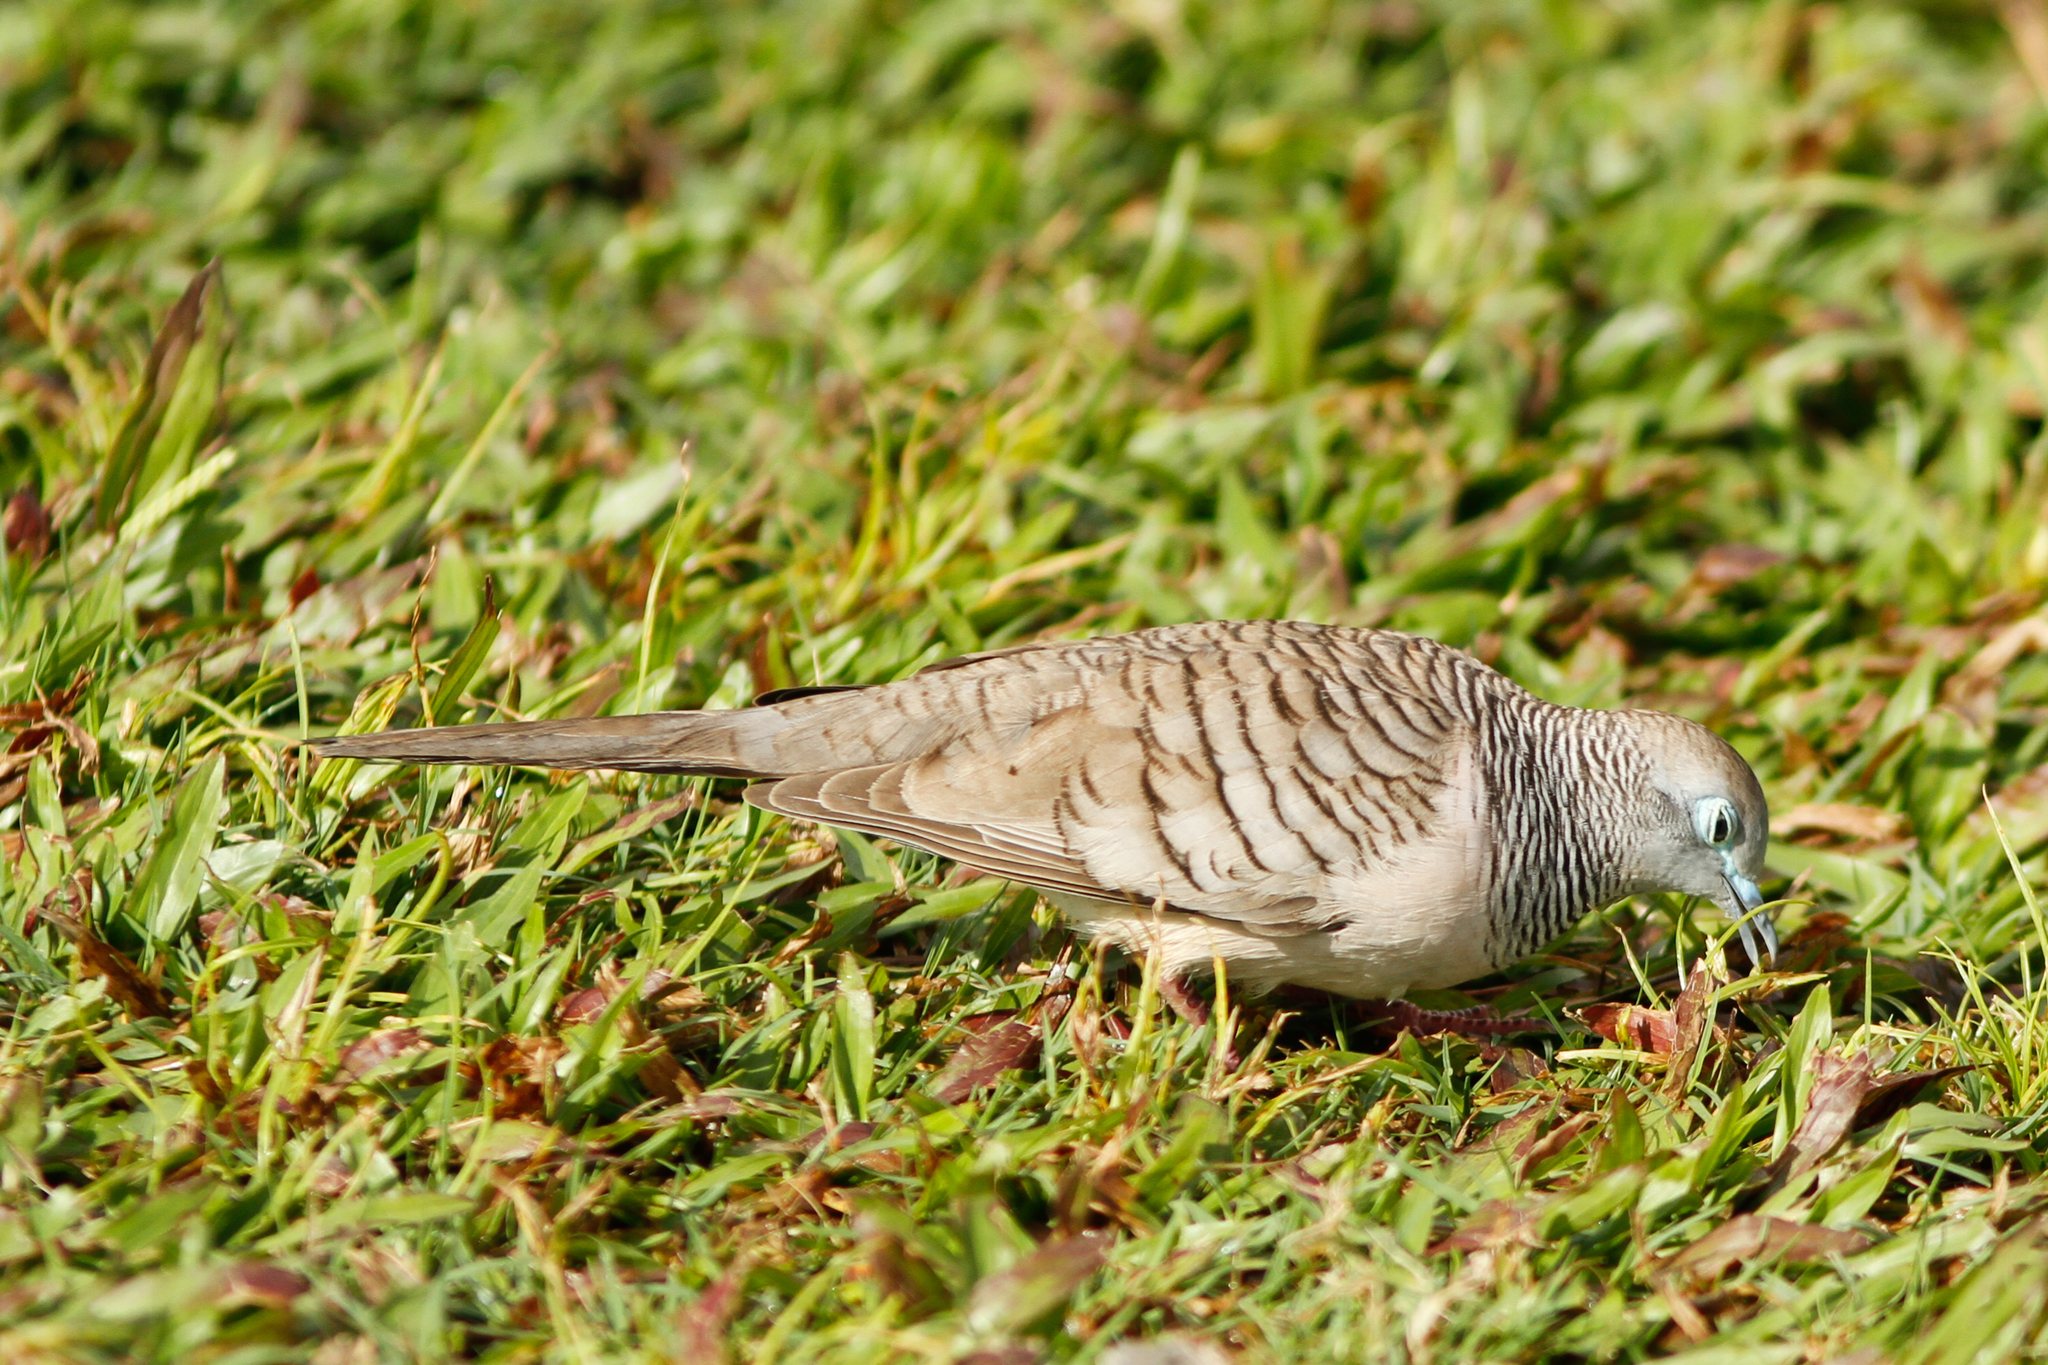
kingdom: Animalia
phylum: Chordata
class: Aves
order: Columbiformes
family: Columbidae
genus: Geopelia
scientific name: Geopelia placida
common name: Peaceful dove
